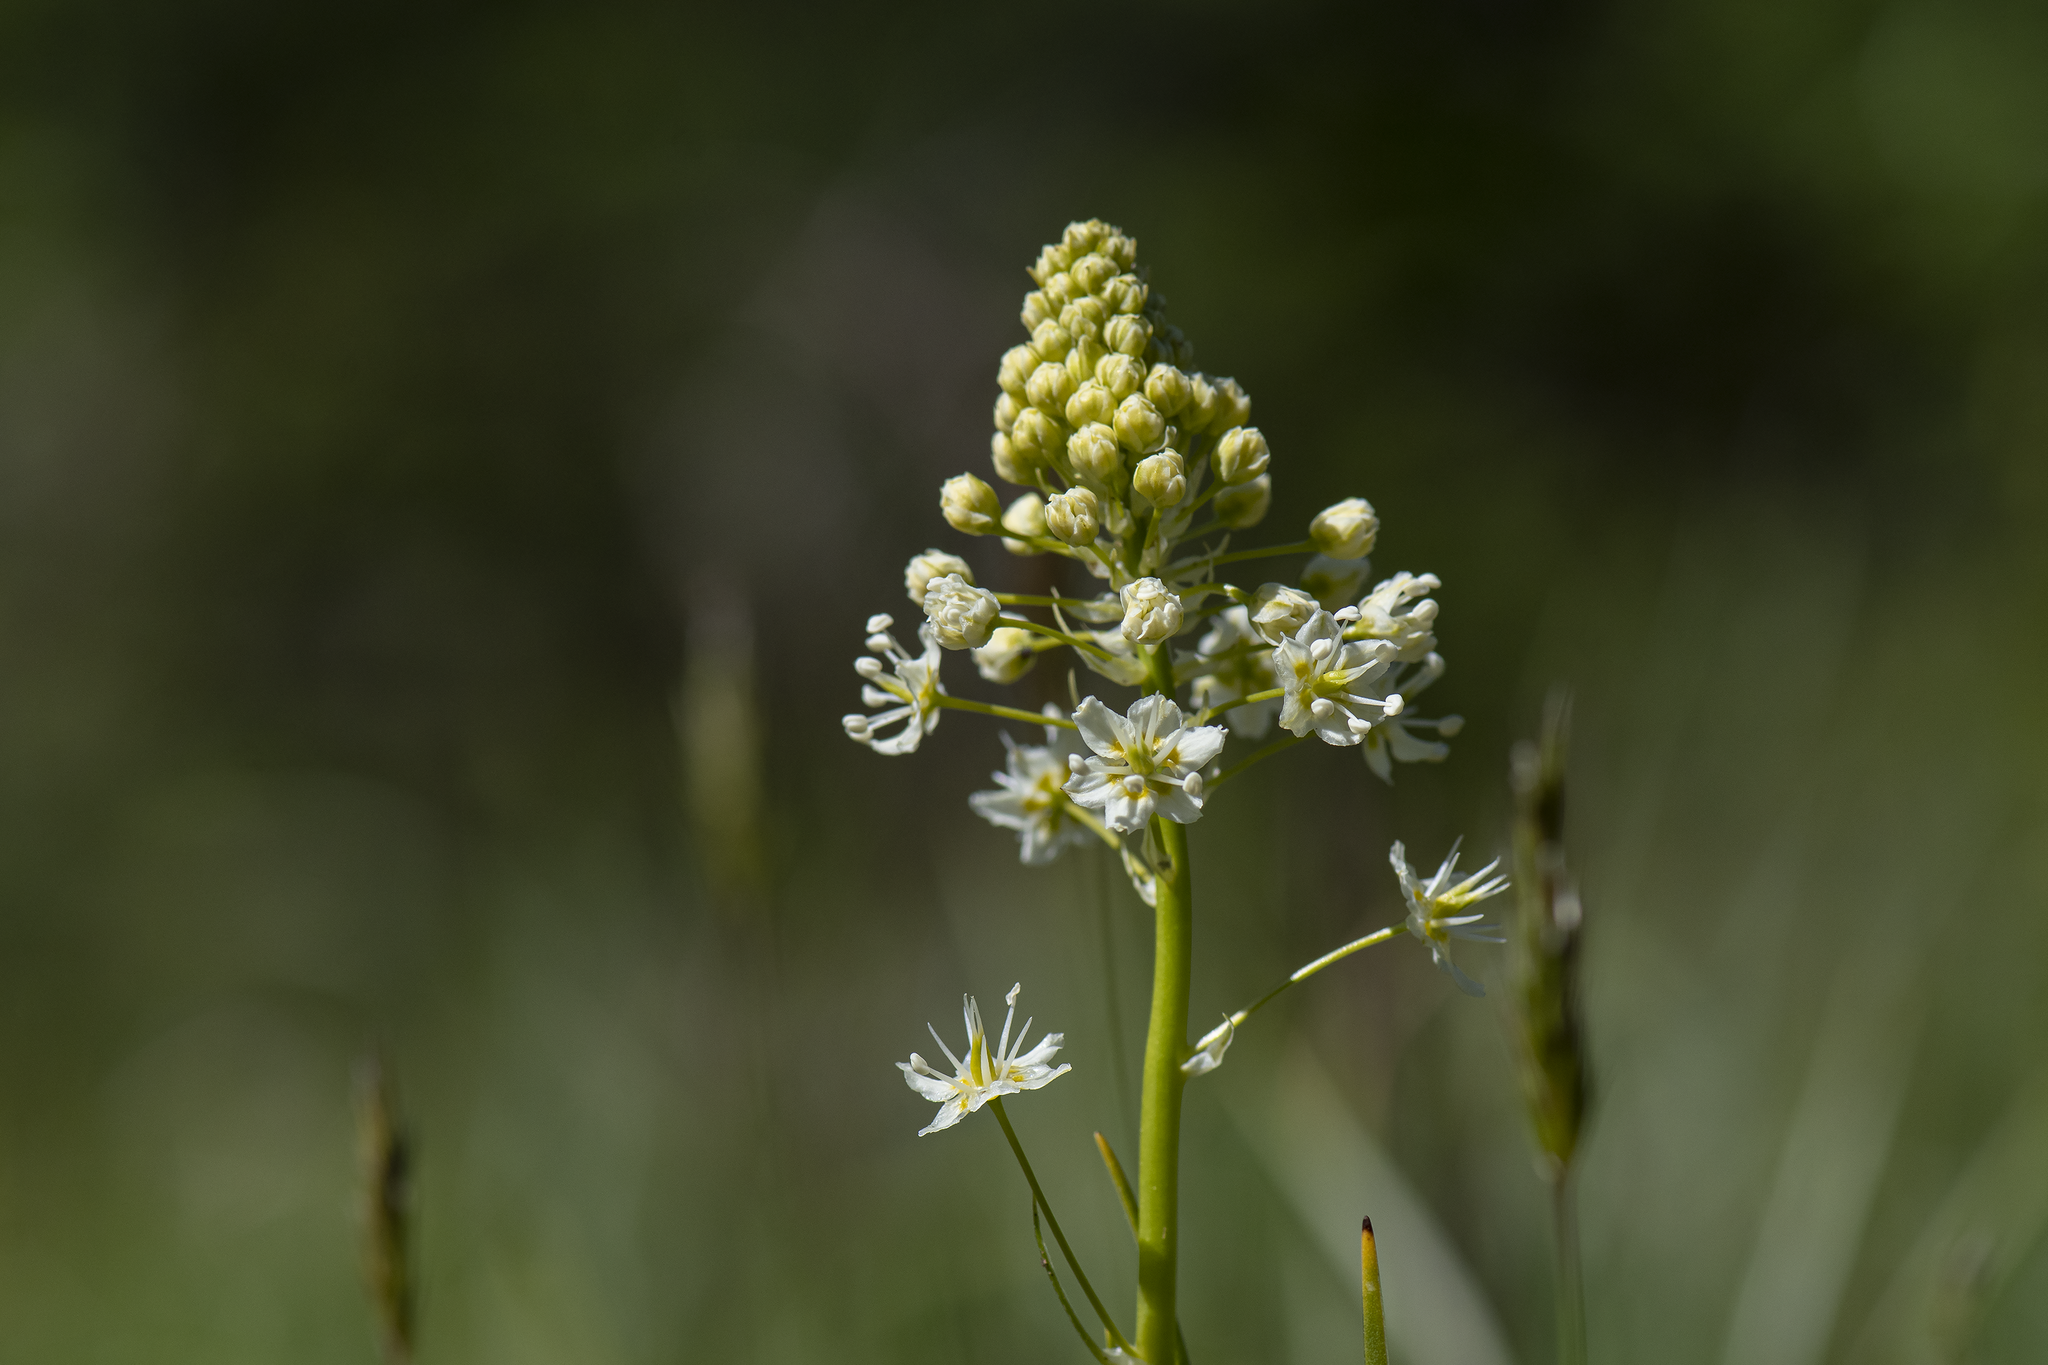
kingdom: Plantae
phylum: Tracheophyta
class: Liliopsida
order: Liliales
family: Melanthiaceae
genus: Toxicoscordion
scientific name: Toxicoscordion venenosum
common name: Meadow death camas
